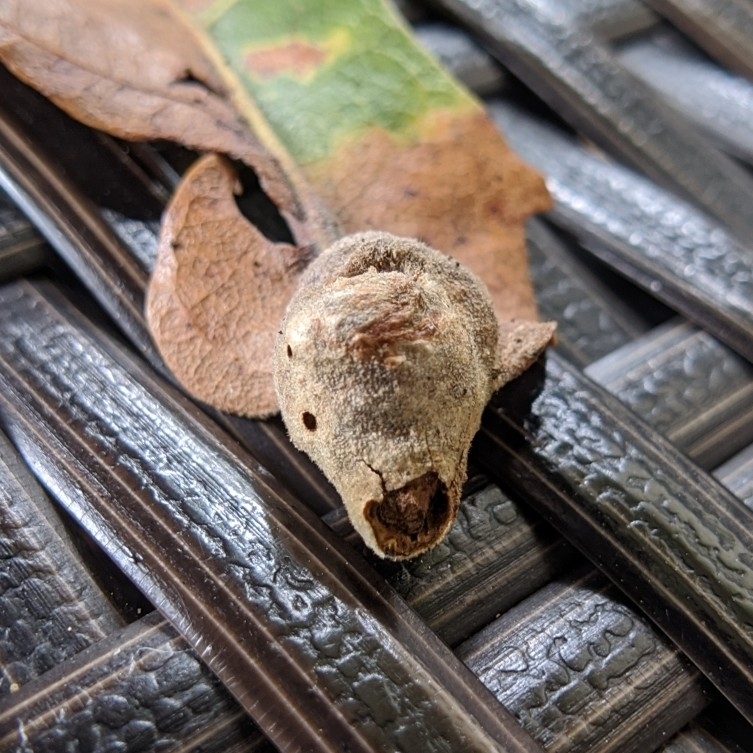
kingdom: Animalia
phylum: Arthropoda
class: Insecta
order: Hymenoptera
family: Cynipidae
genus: Andricus
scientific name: Andricus
